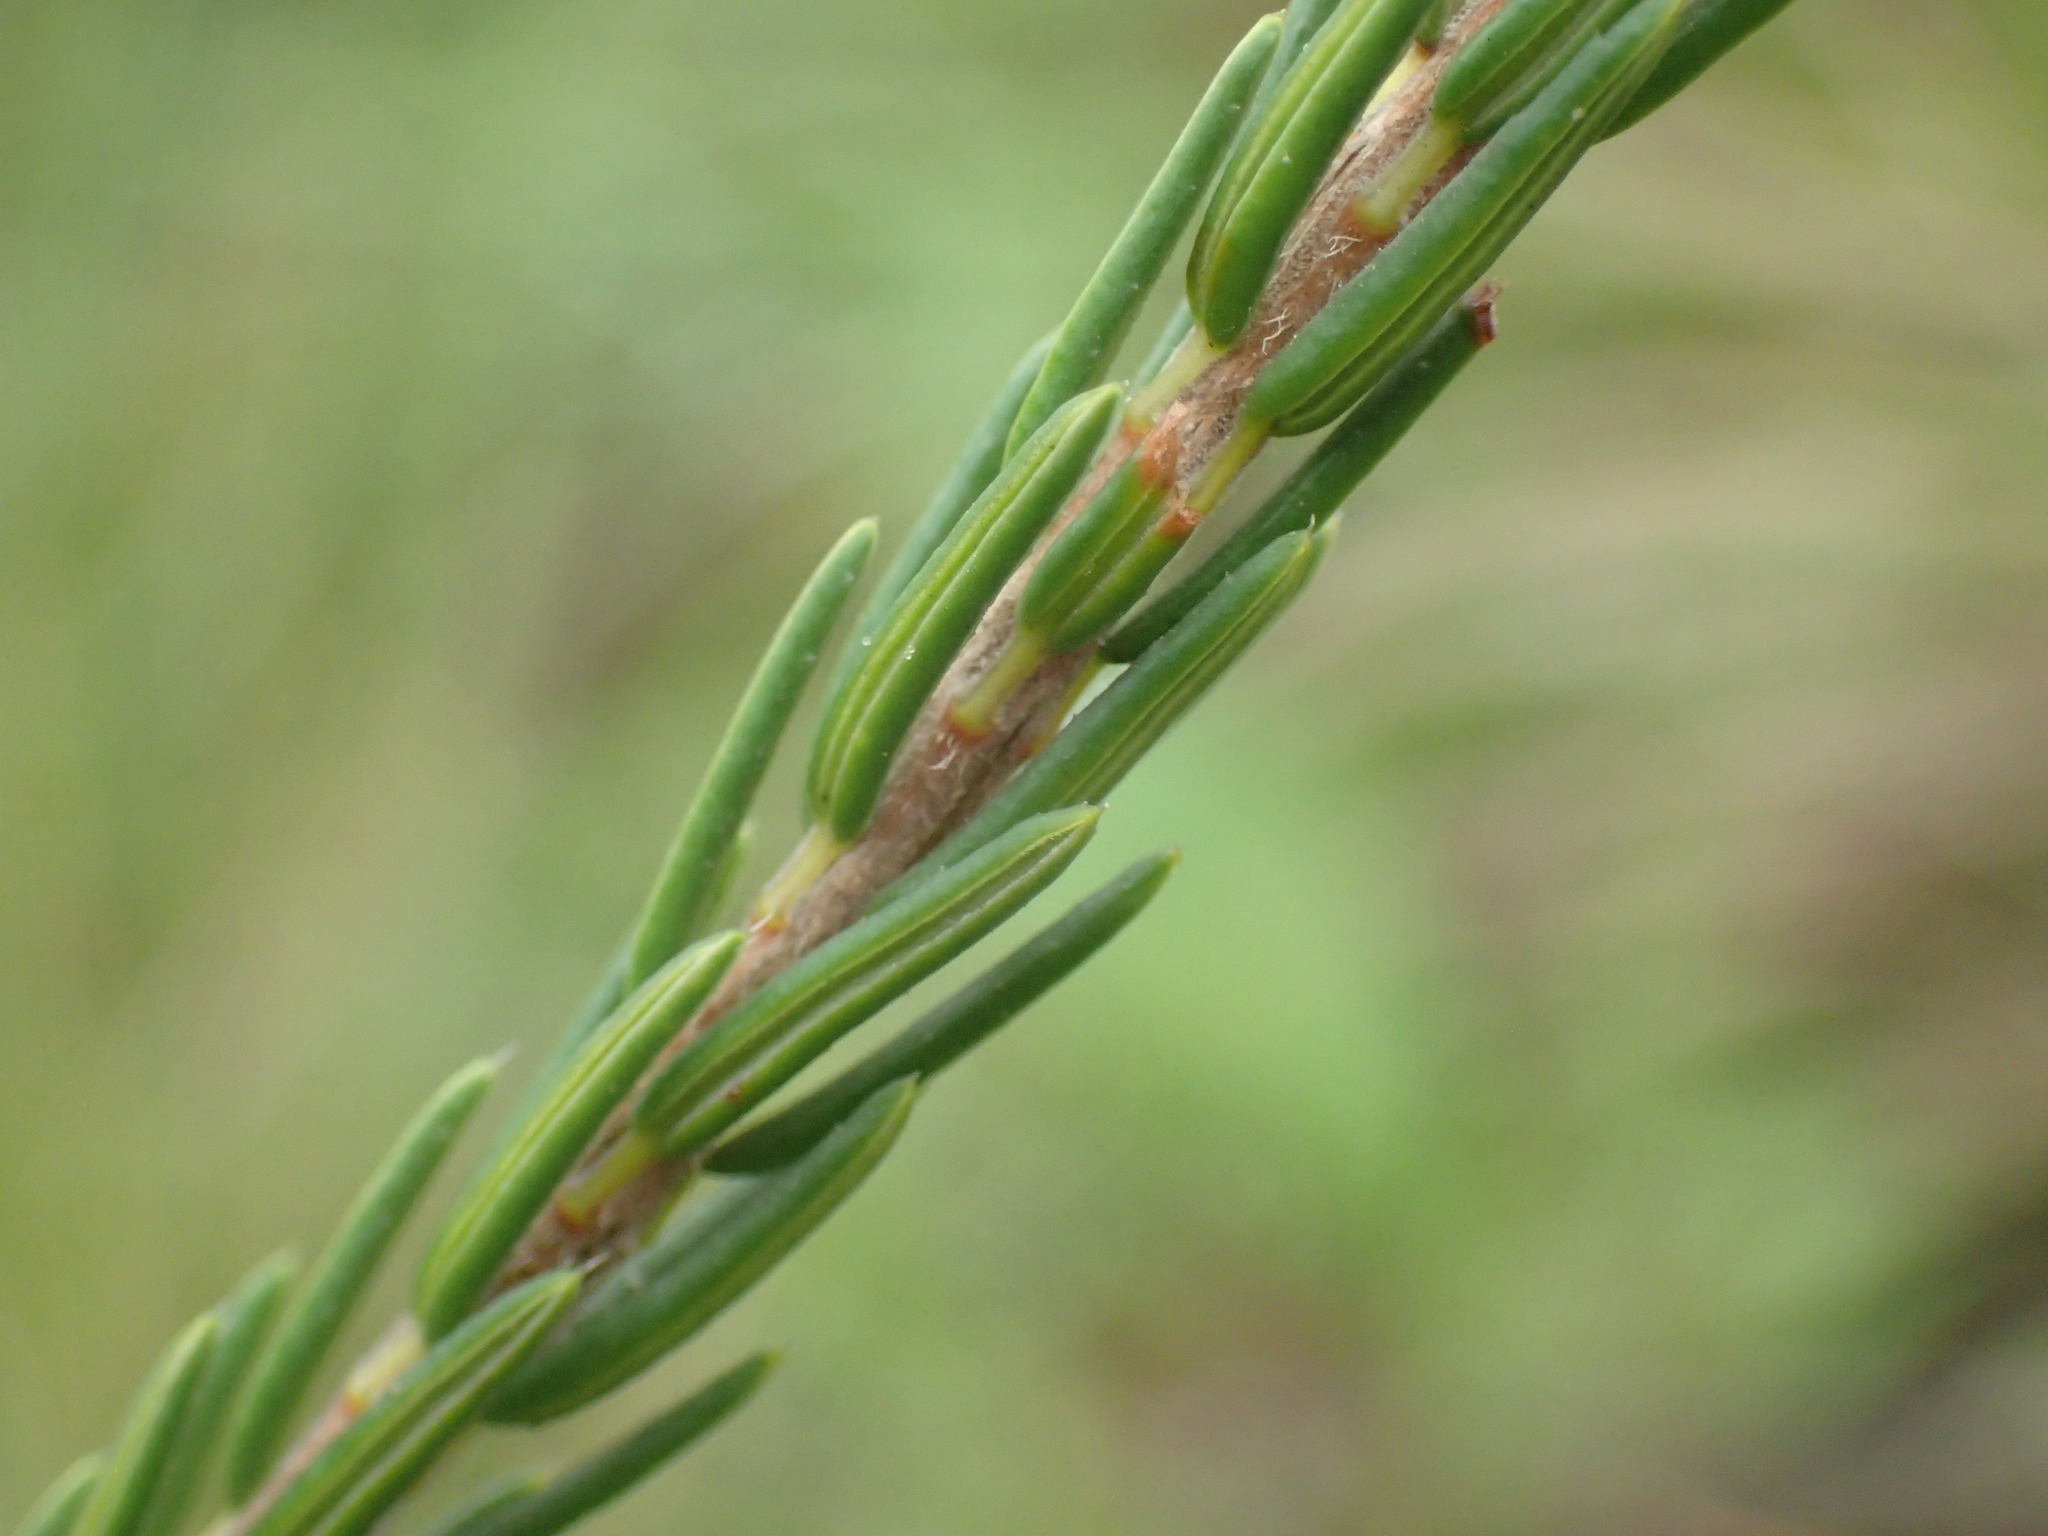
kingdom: Plantae
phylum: Tracheophyta
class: Magnoliopsida
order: Ericales
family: Ericaceae
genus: Erica
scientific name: Erica cerinthoides
